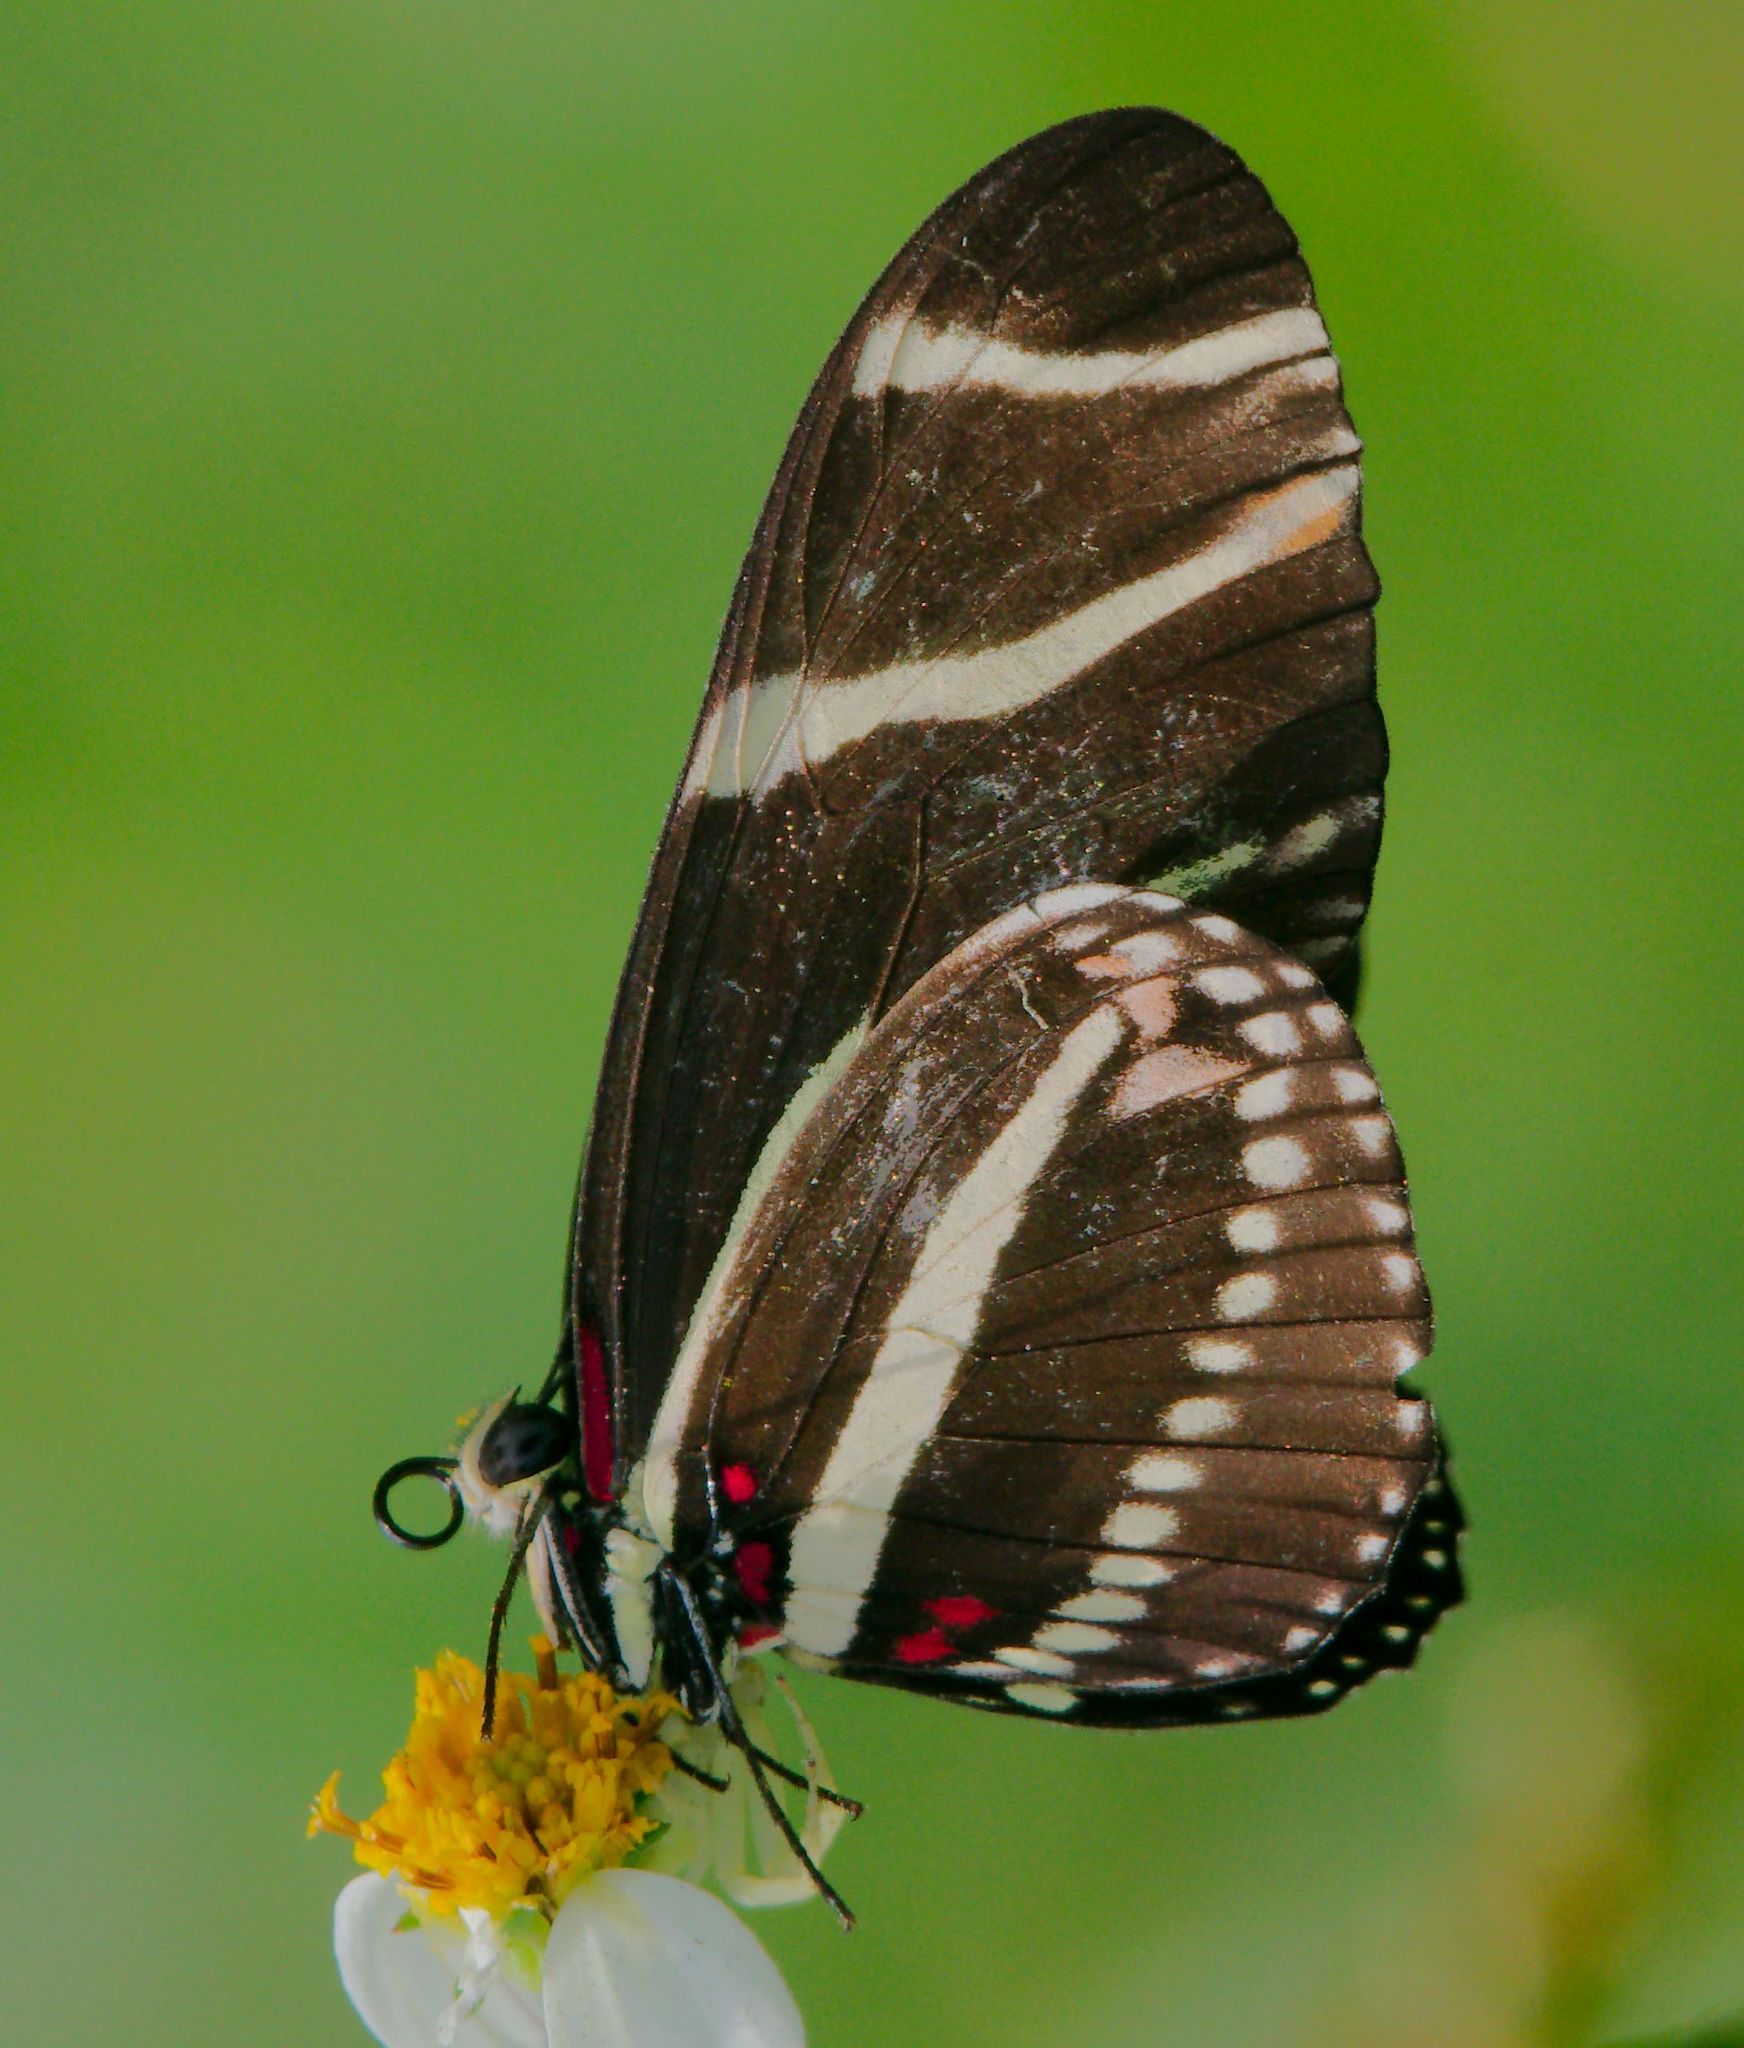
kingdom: Animalia
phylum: Arthropoda
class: Insecta
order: Lepidoptera
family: Nymphalidae
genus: Heliconius
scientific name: Heliconius charithonia
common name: Zebra long wing
